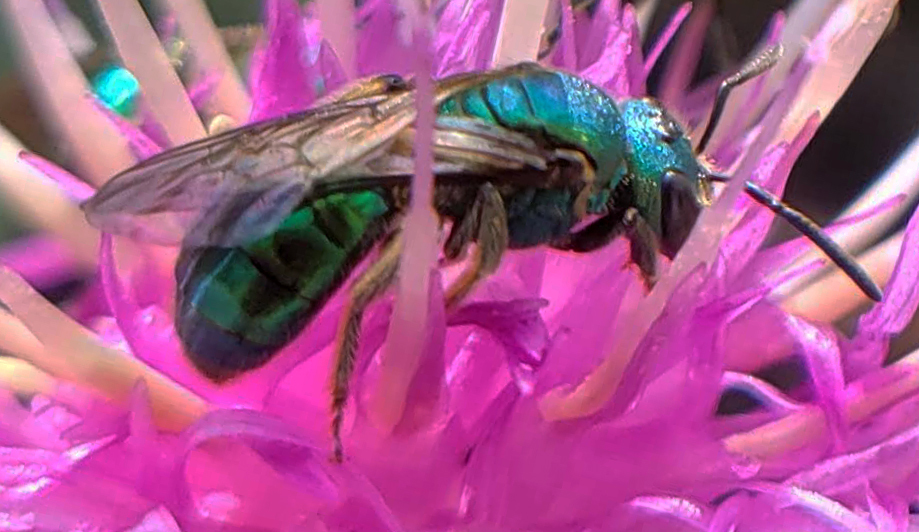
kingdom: Animalia
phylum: Arthropoda
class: Insecta
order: Hymenoptera
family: Halictidae
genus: Augochlora
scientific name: Augochlora pura
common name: Pure green sweat bee
